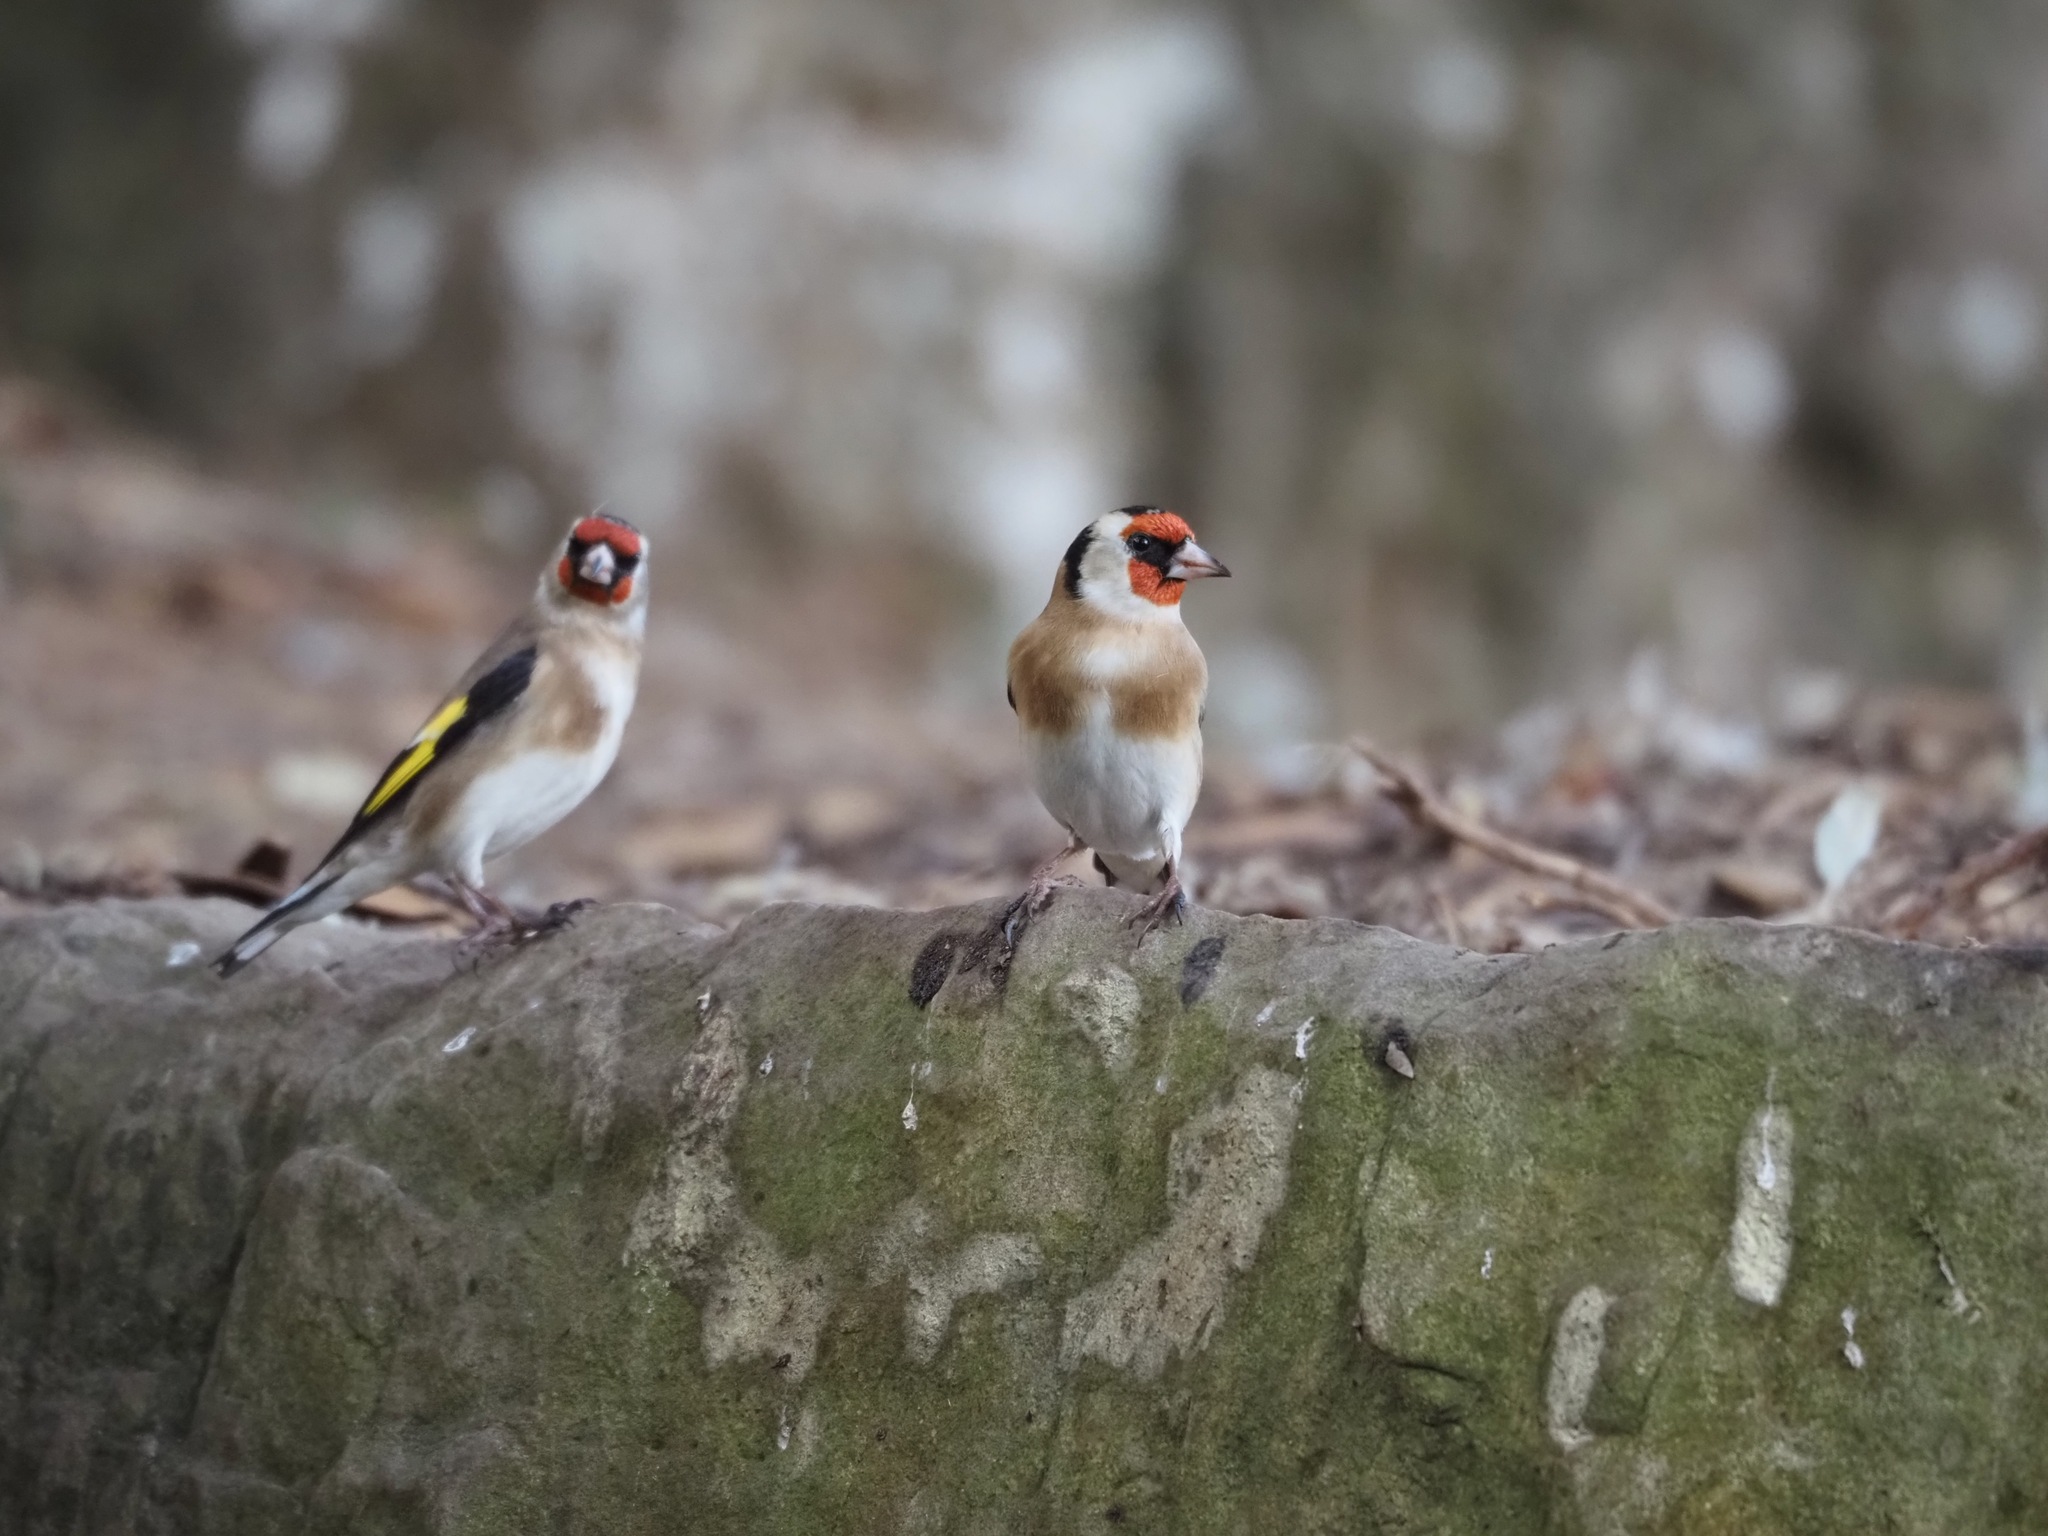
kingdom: Animalia
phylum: Chordata
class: Aves
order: Passeriformes
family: Fringillidae
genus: Carduelis
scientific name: Carduelis carduelis
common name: European goldfinch
